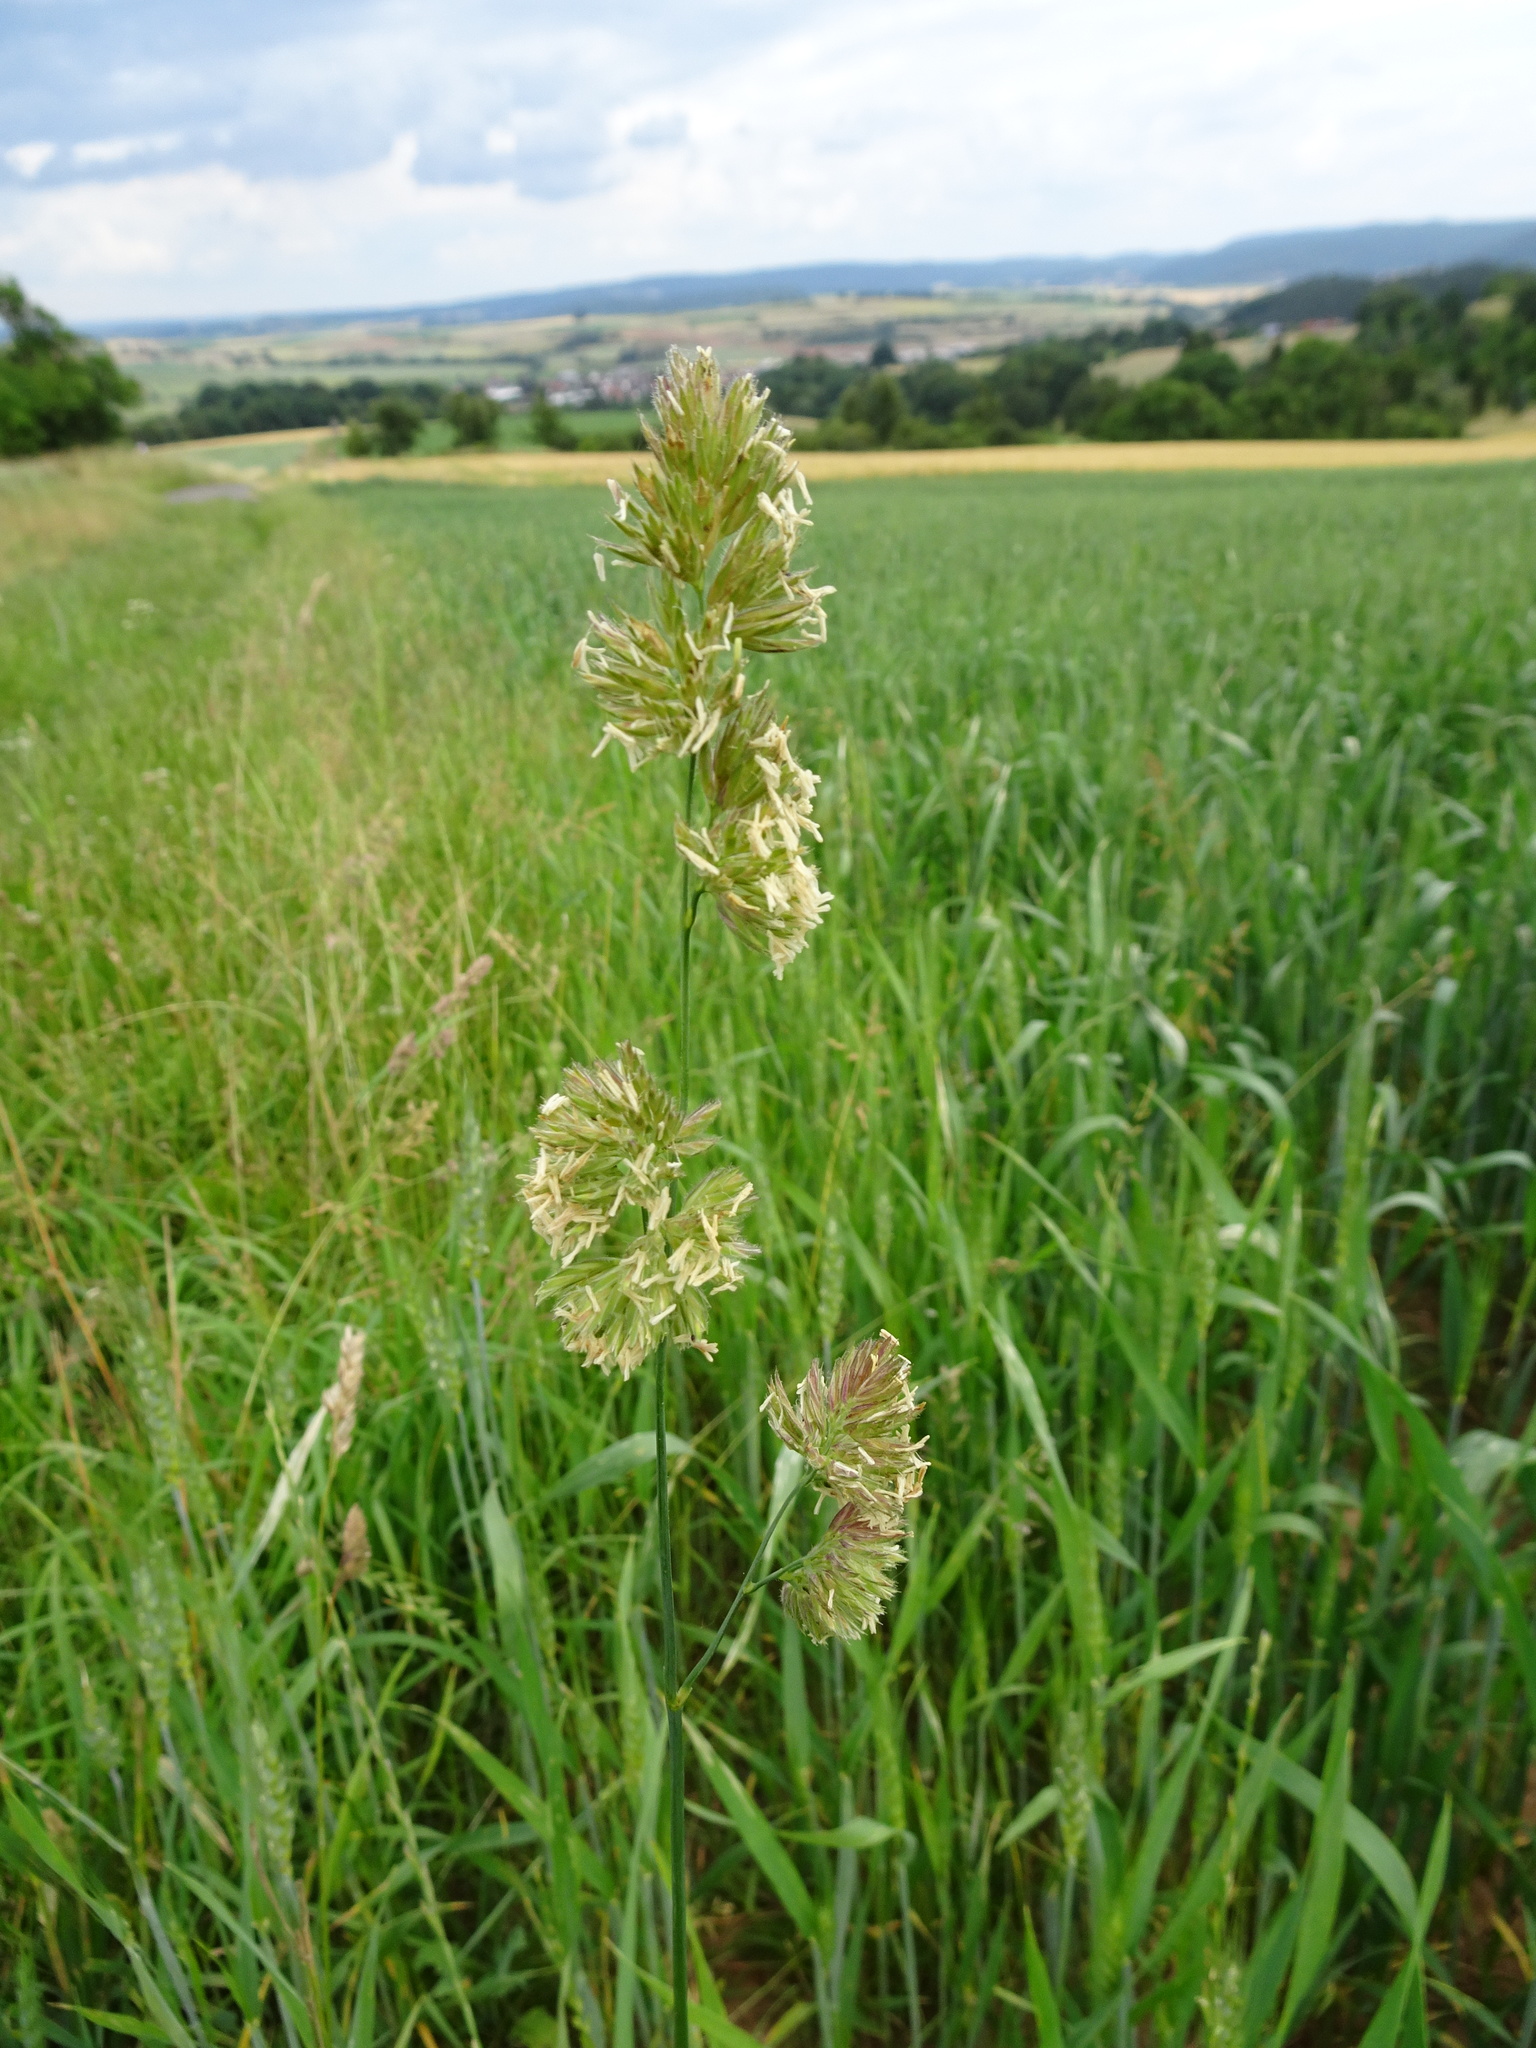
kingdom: Plantae
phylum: Tracheophyta
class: Liliopsida
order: Poales
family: Poaceae
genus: Dactylis
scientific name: Dactylis glomerata
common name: Orchardgrass
